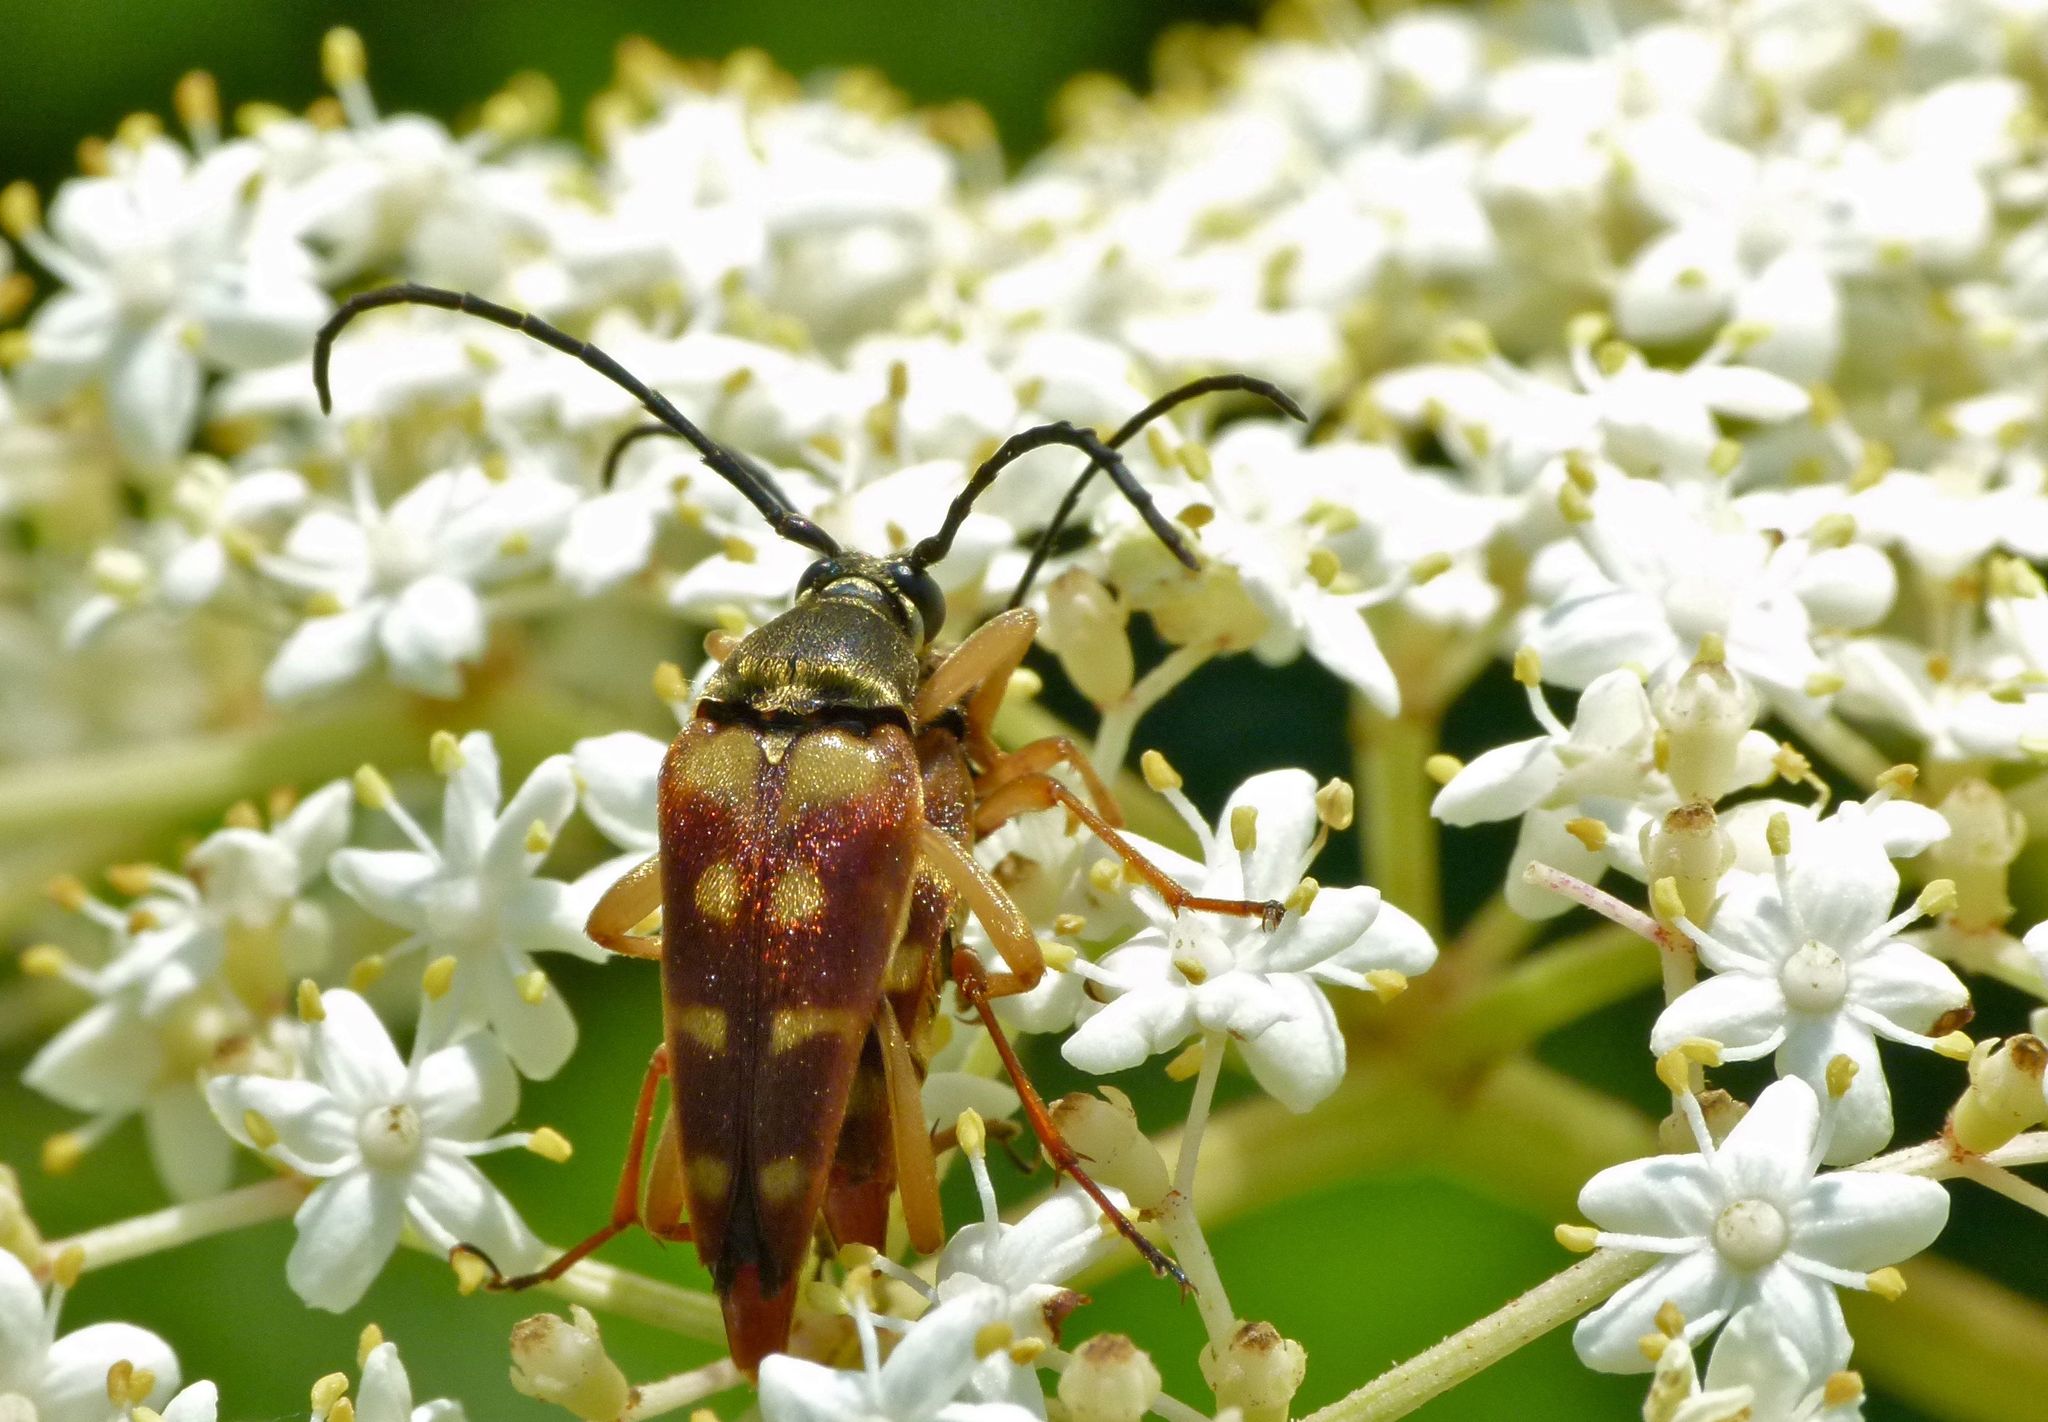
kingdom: Animalia
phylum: Arthropoda
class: Insecta
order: Coleoptera
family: Cerambycidae
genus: Typocerus
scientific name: Typocerus velutinus
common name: Banded longhorn beetle
